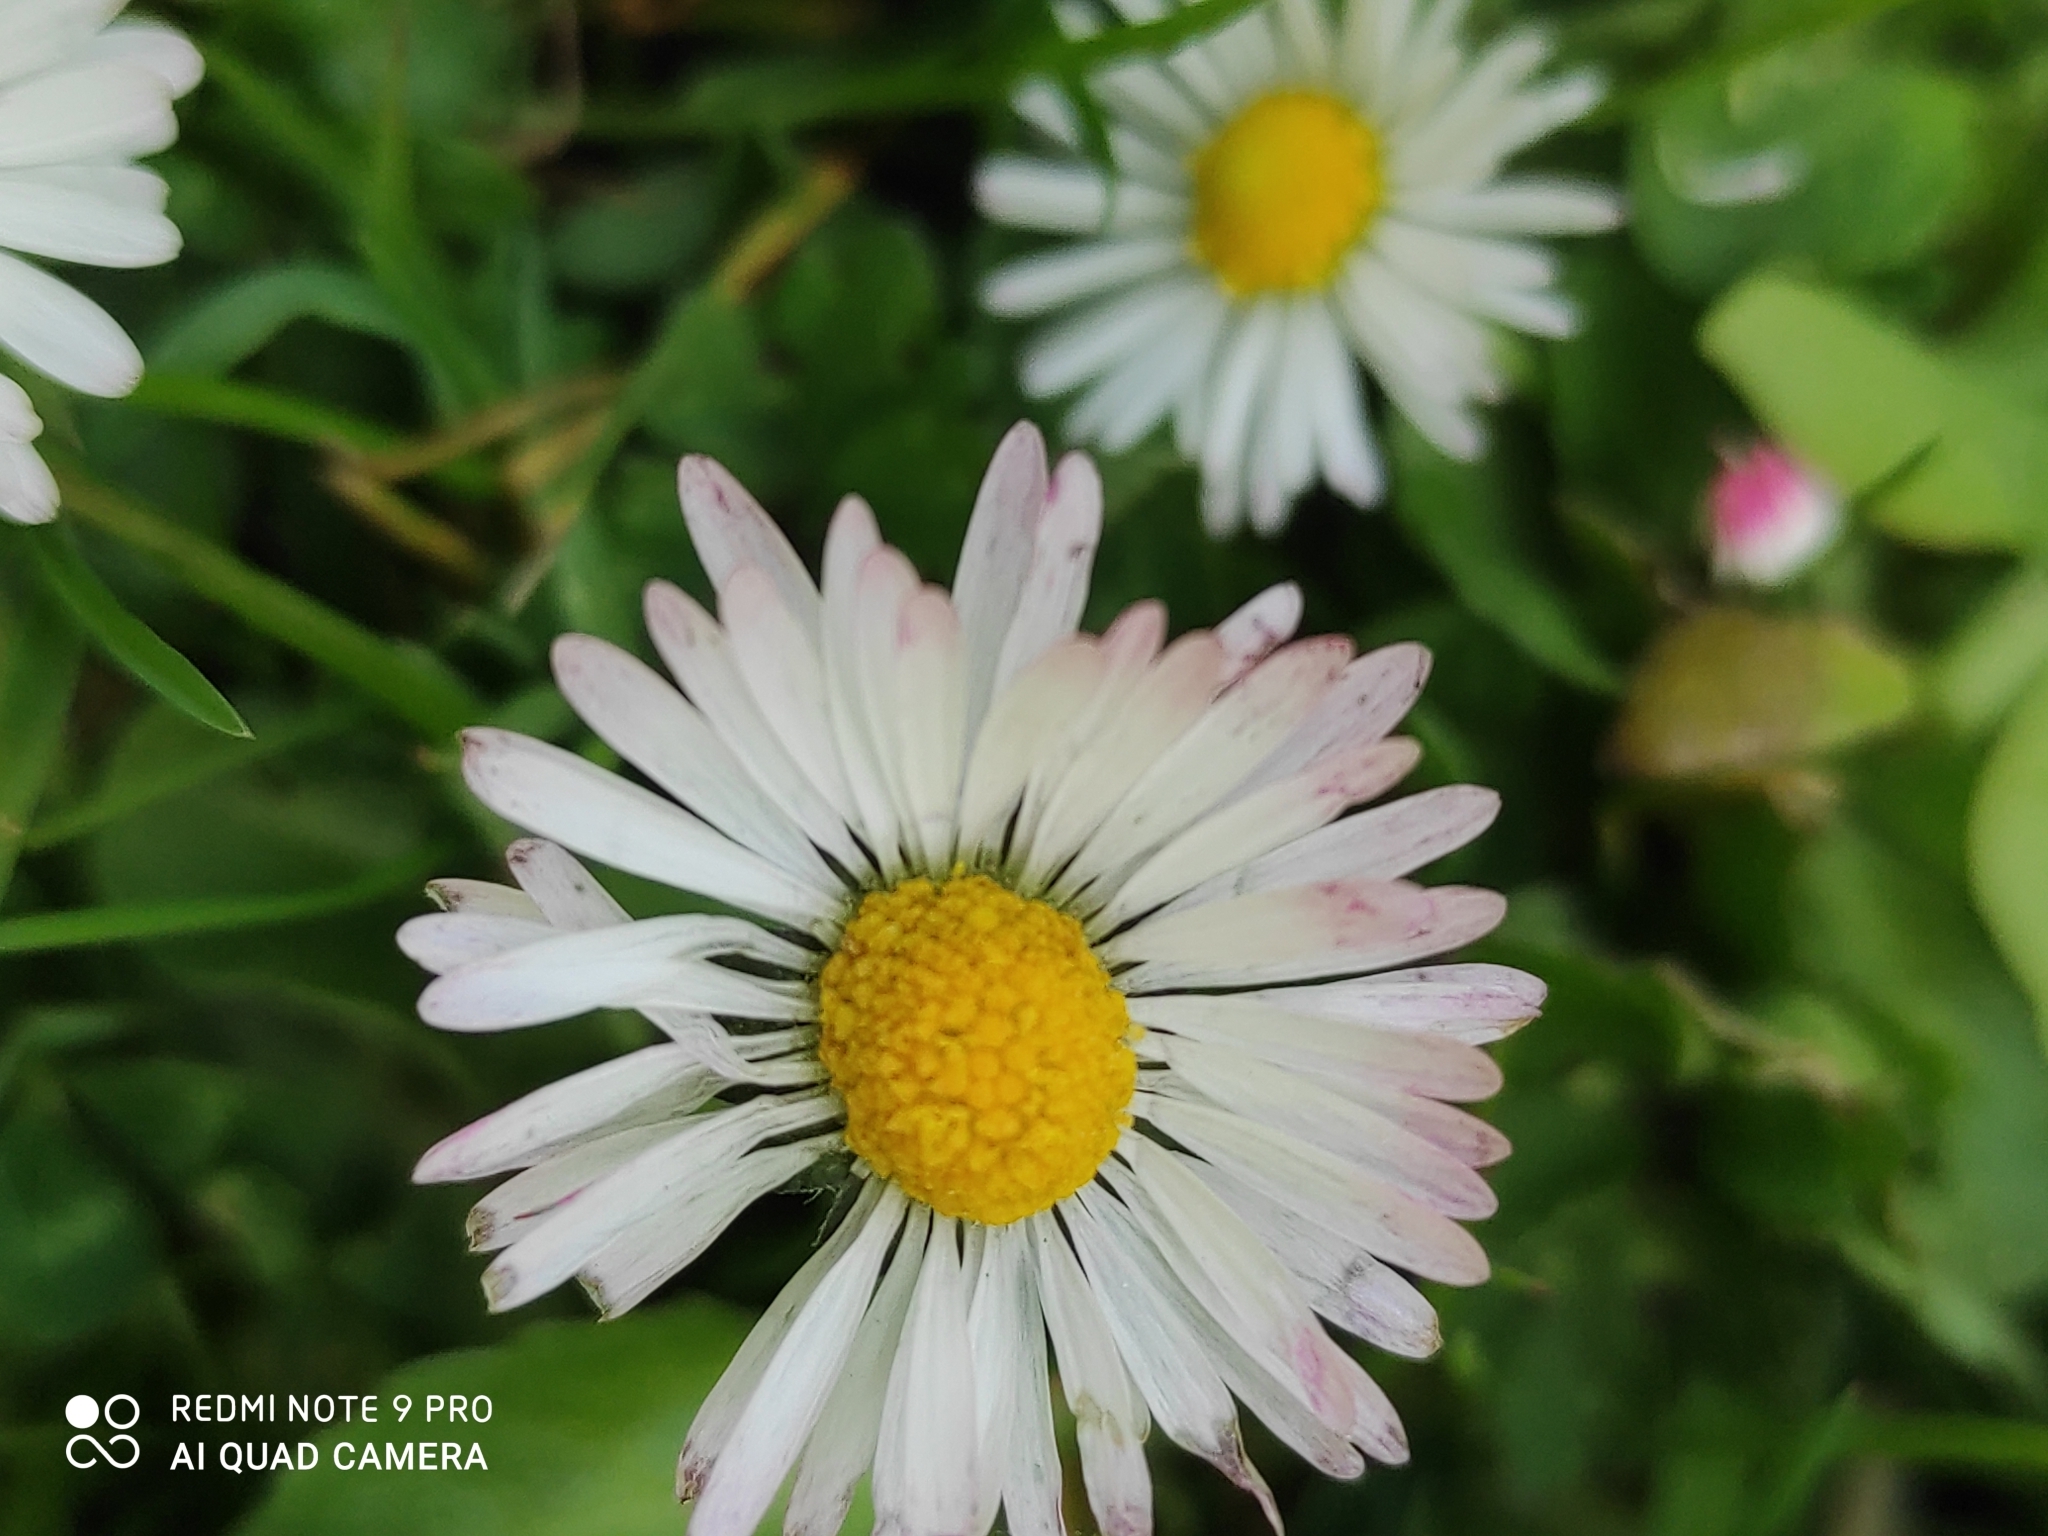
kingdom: Plantae
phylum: Tracheophyta
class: Magnoliopsida
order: Asterales
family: Asteraceae
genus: Bellis
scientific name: Bellis perennis
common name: Lawndaisy
